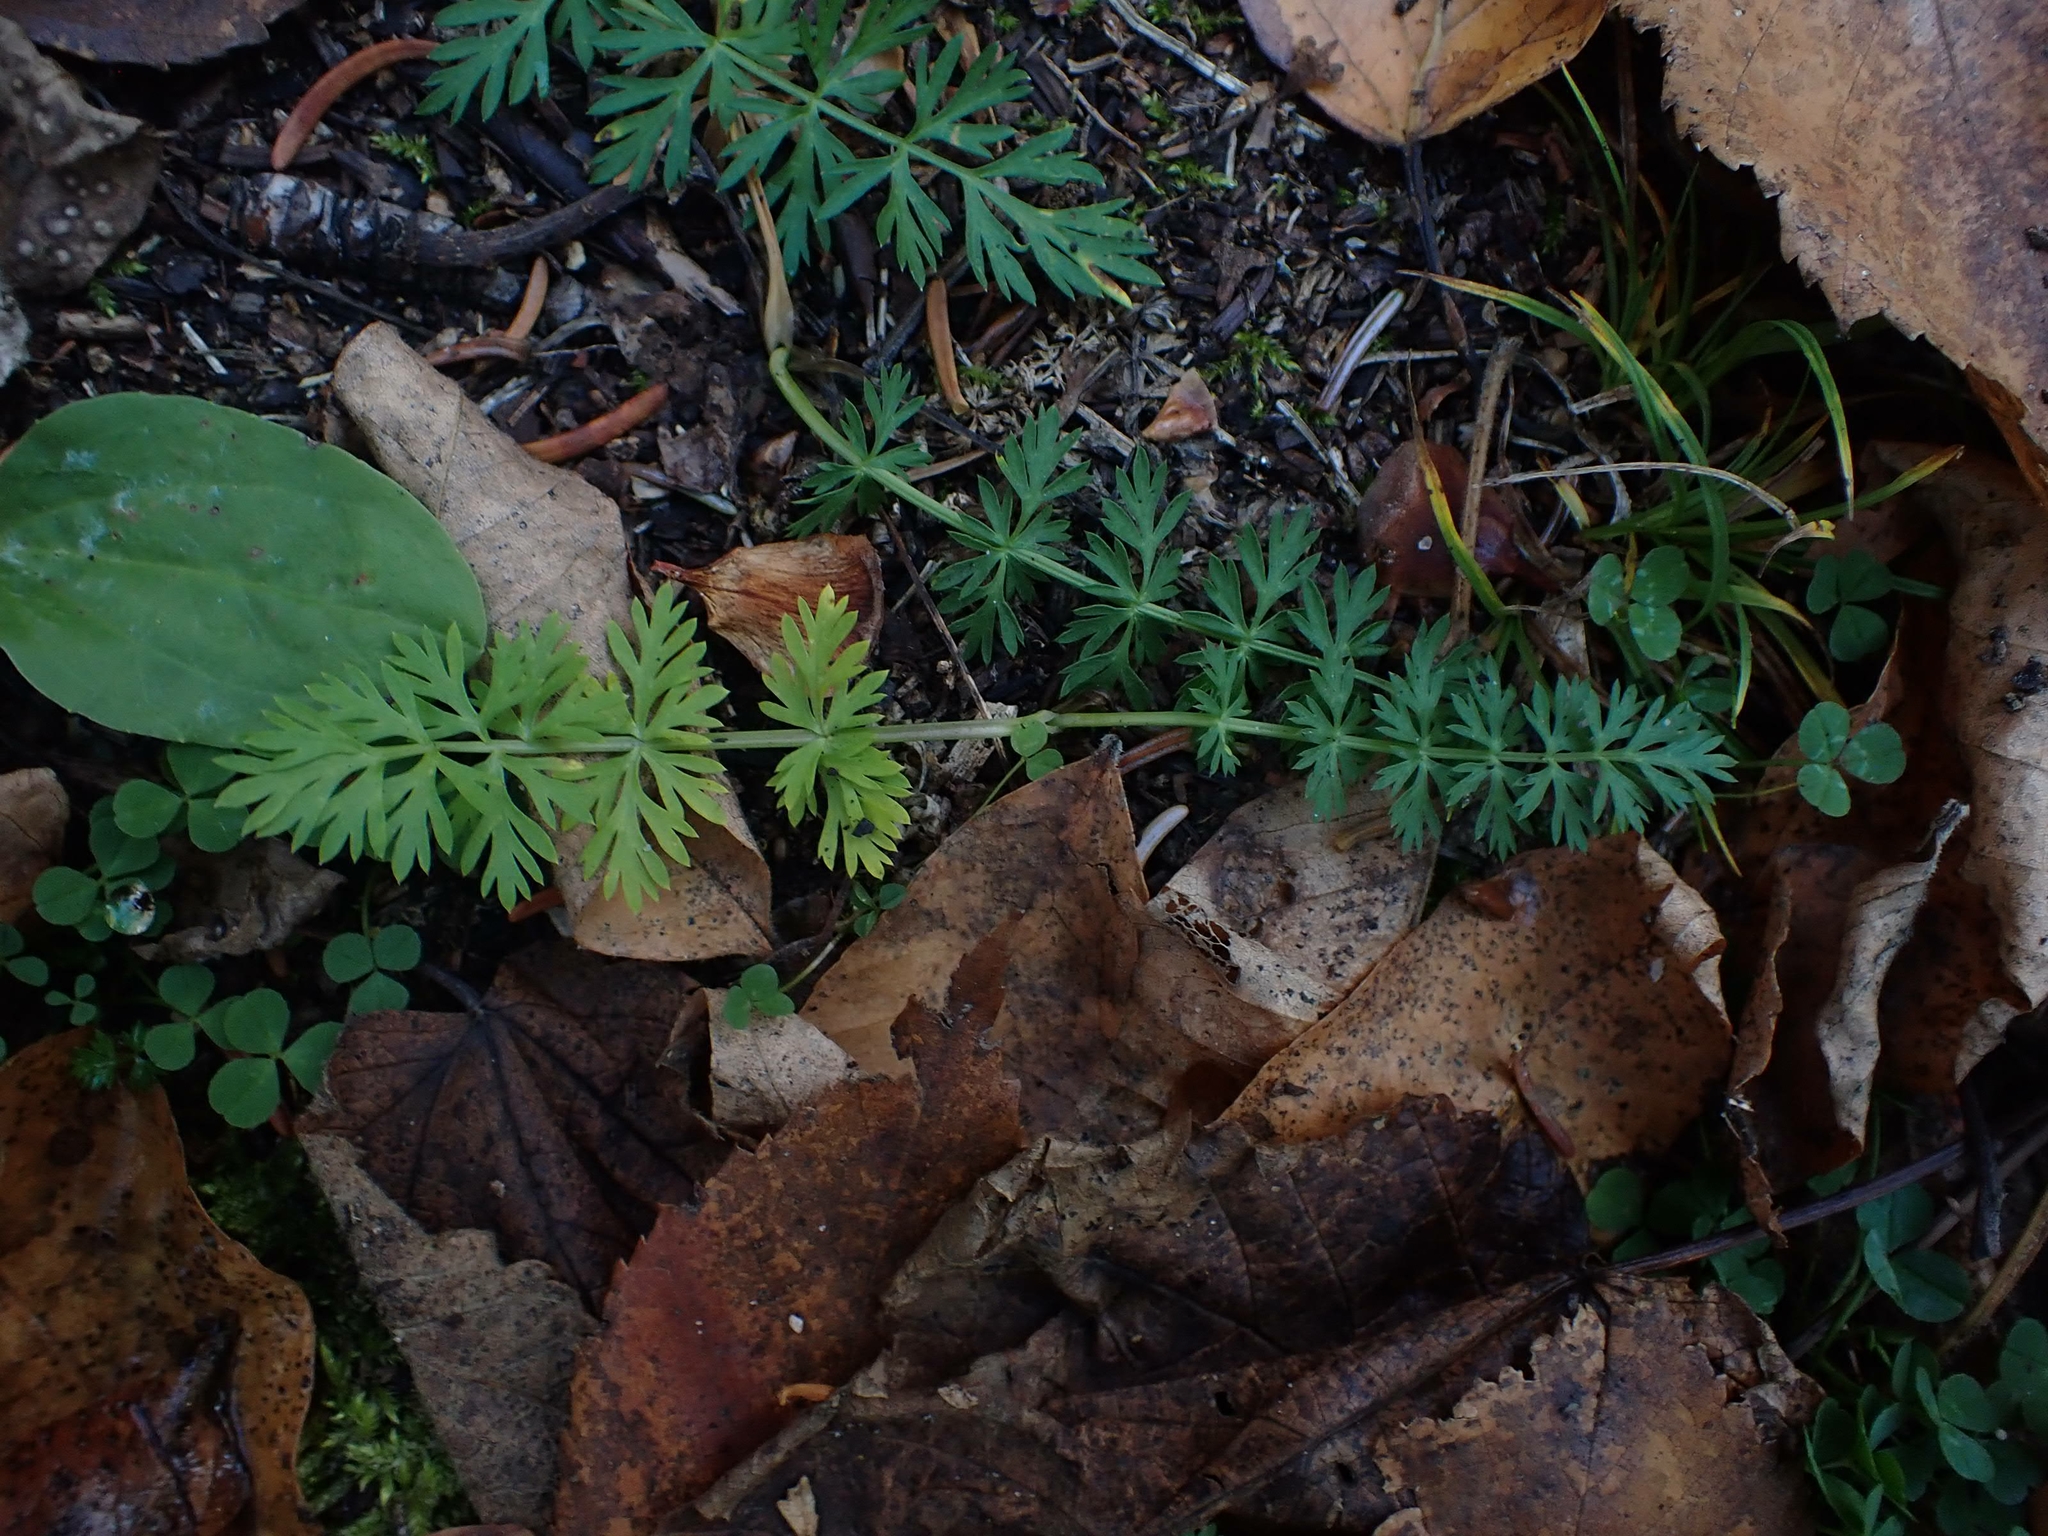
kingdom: Plantae
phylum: Tracheophyta
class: Magnoliopsida
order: Asterales
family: Asteraceae
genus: Achillea
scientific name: Achillea millefolium
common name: Yarrow
